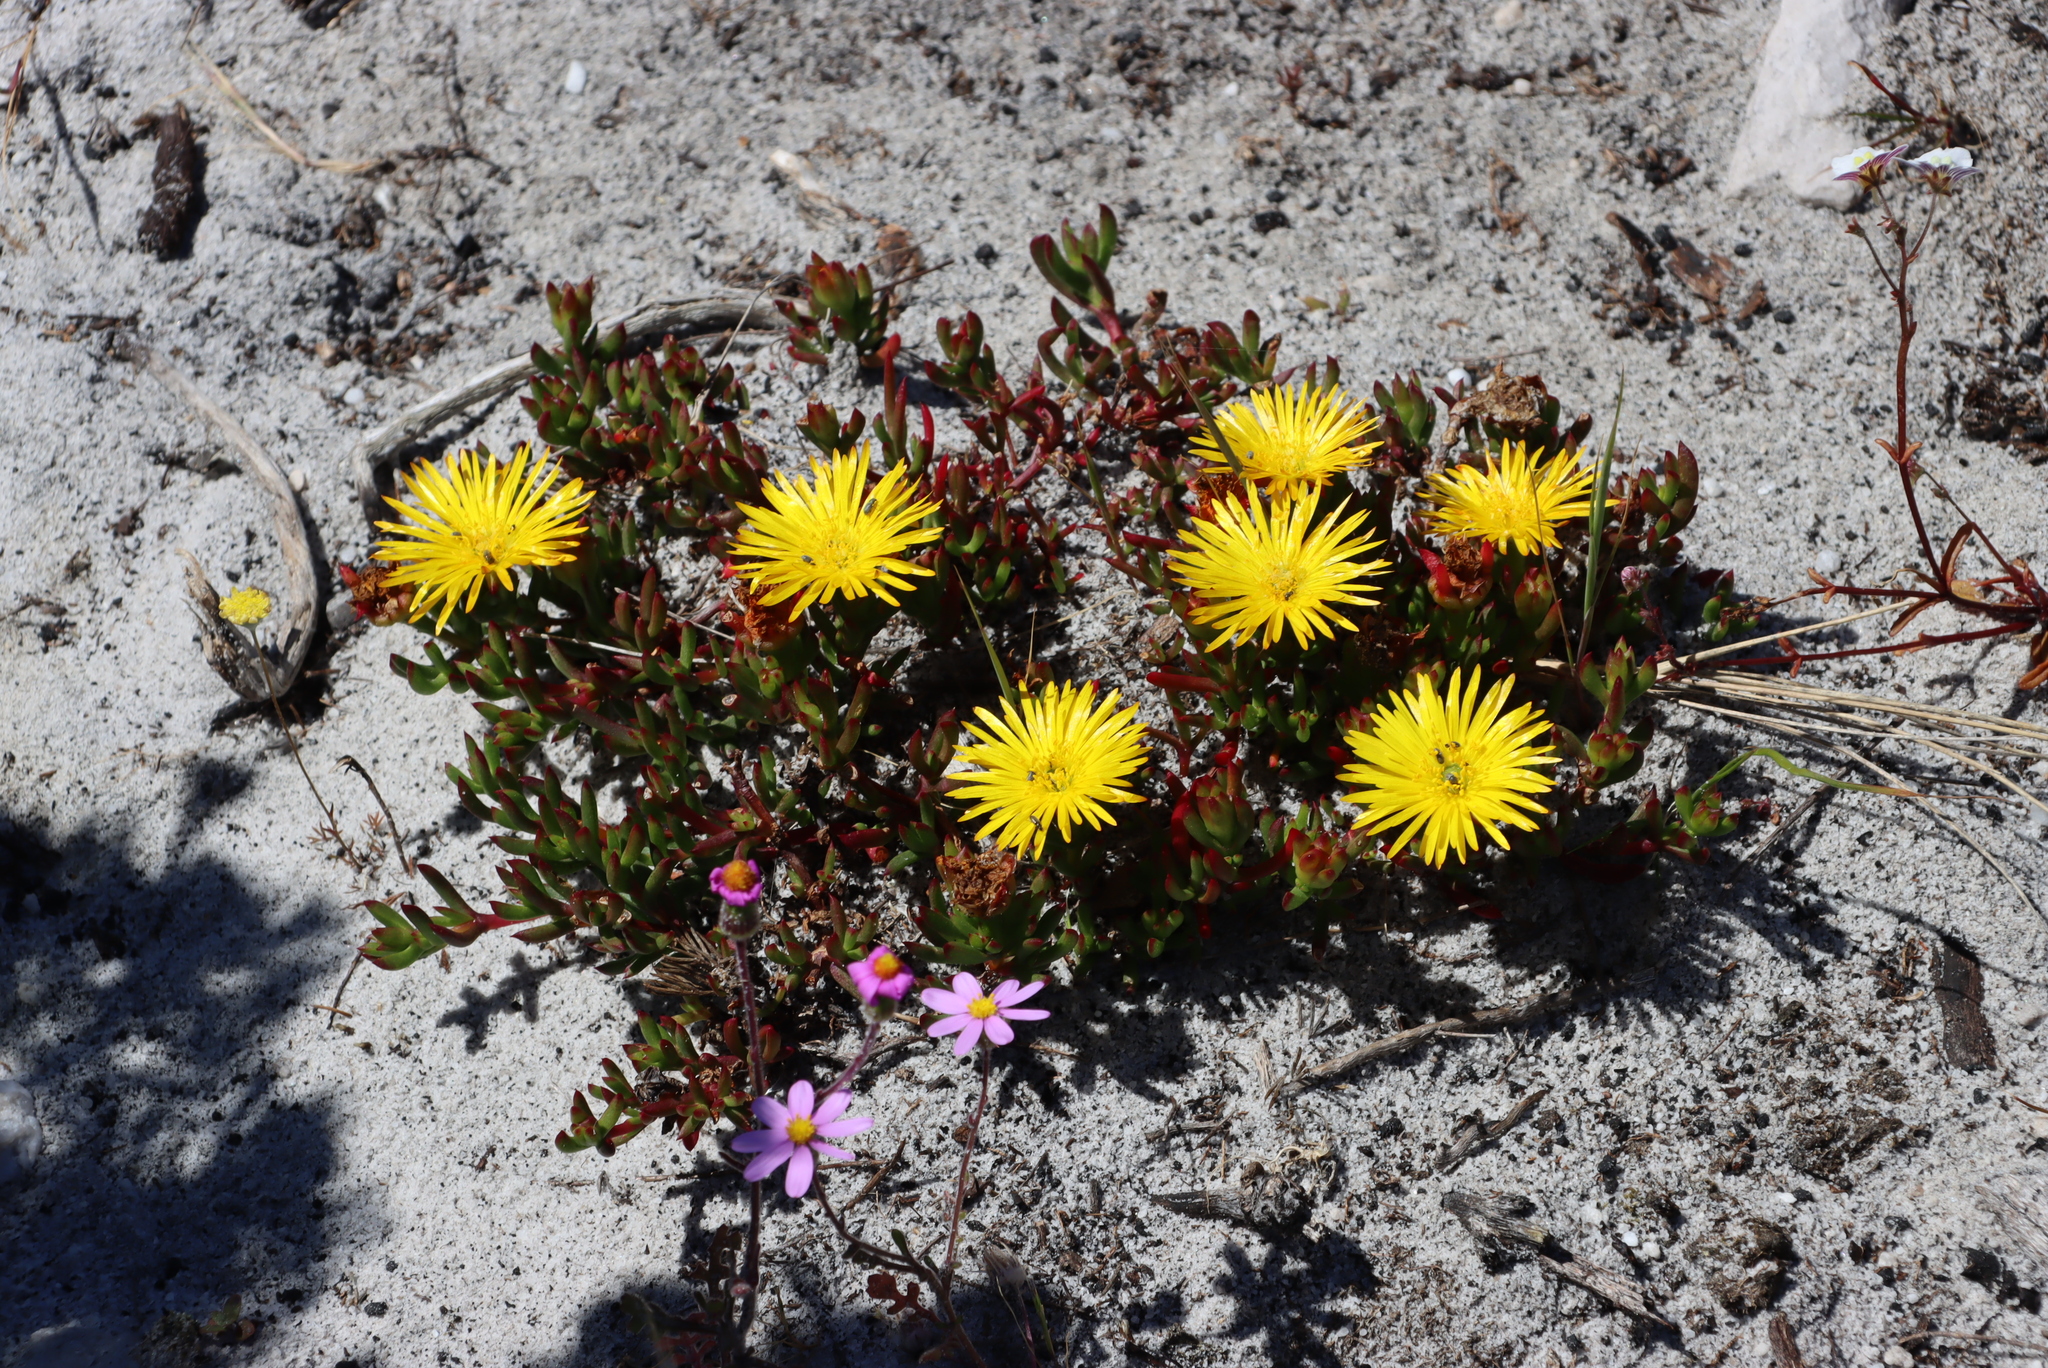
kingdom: Plantae
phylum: Tracheophyta
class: Magnoliopsida
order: Caryophyllales
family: Aizoaceae
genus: Lampranthus
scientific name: Lampranthus promontorii
